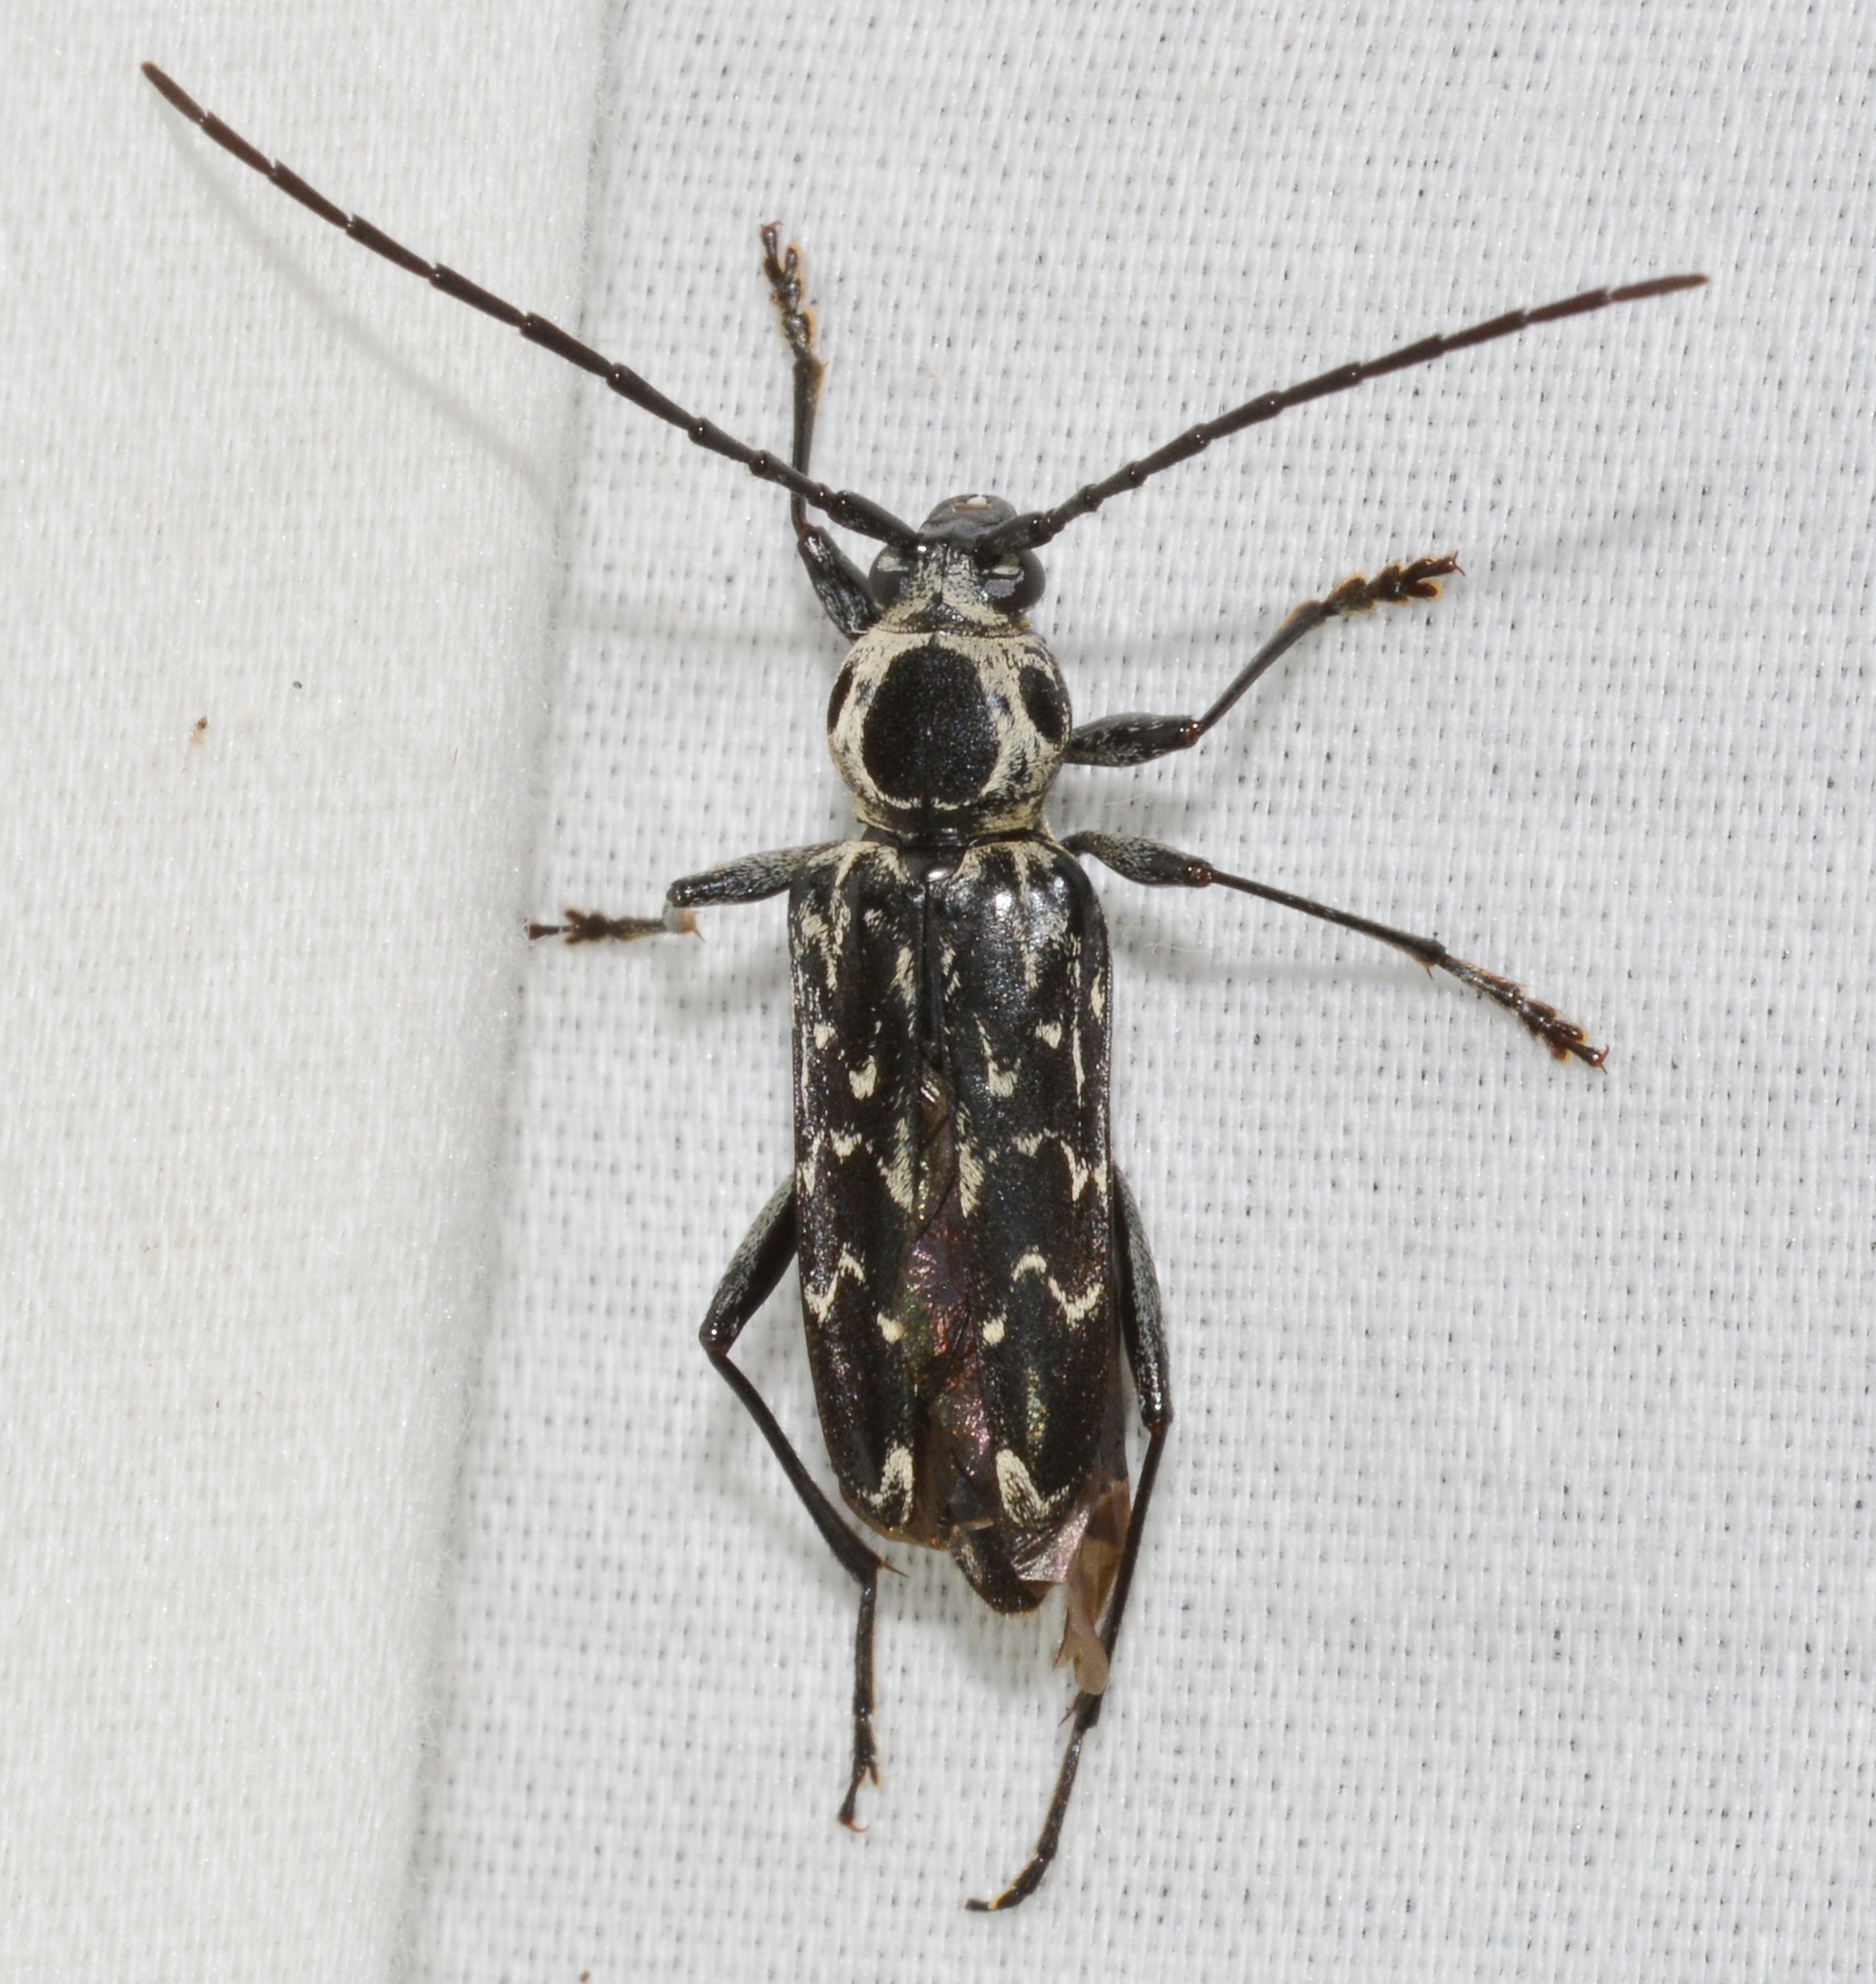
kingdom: Animalia
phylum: Arthropoda
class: Insecta
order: Coleoptera
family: Cerambycidae
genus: Sarosesthes
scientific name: Sarosesthes fulminans
